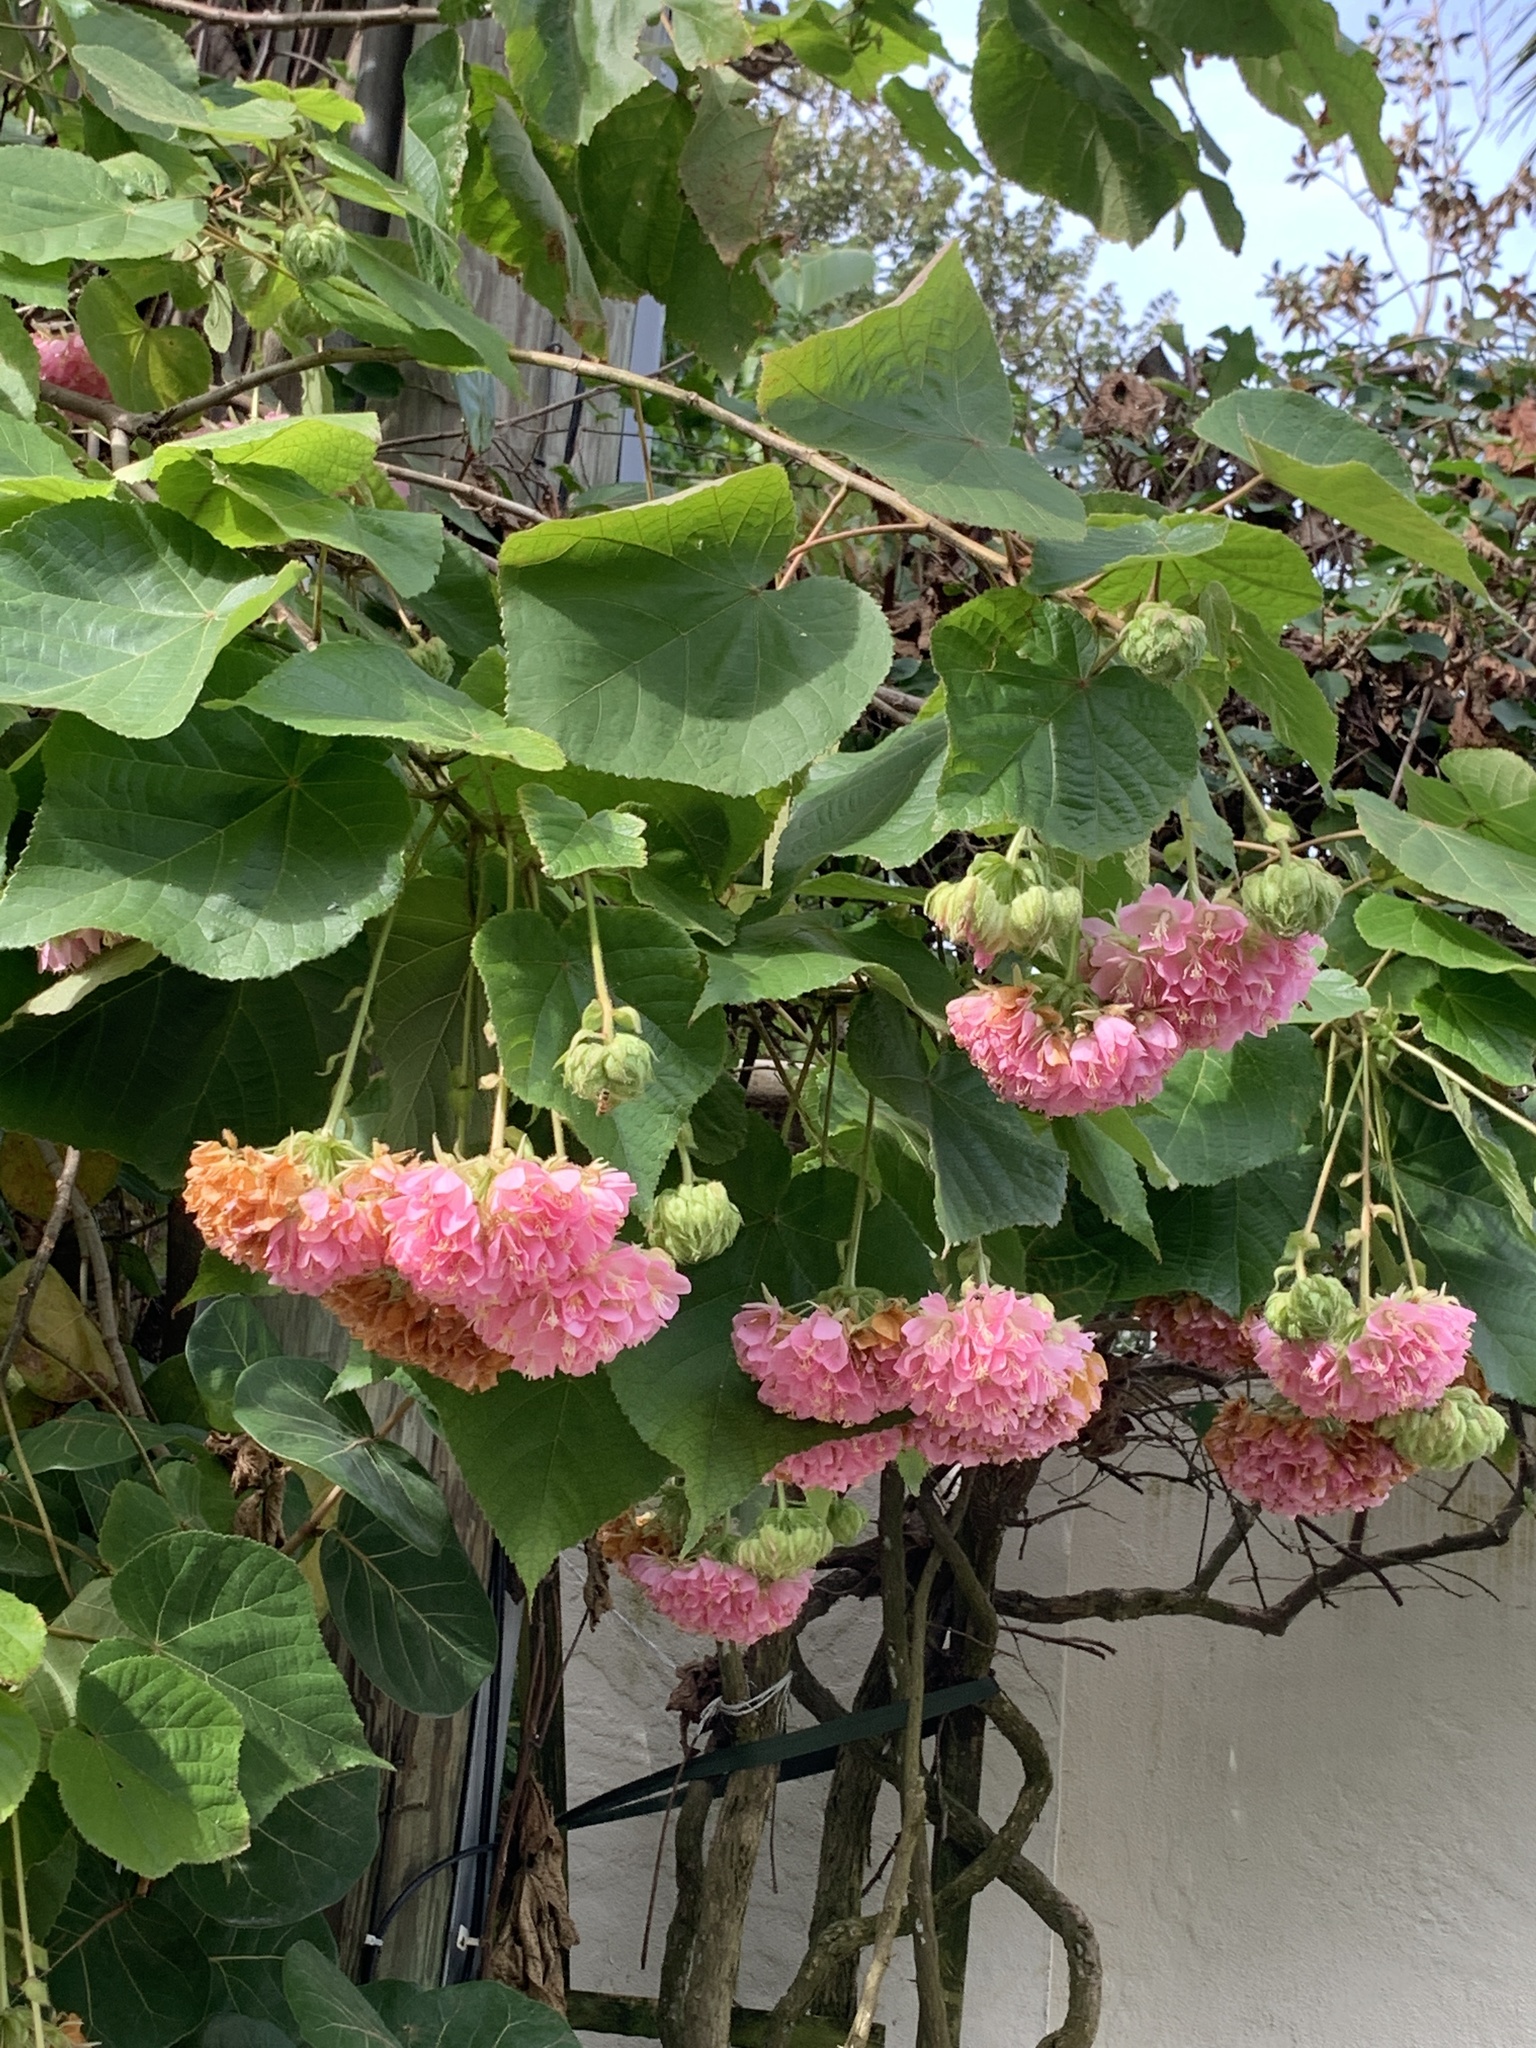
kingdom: Plantae
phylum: Tracheophyta
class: Magnoliopsida
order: Malvales
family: Malvaceae
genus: Dombeya
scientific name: Dombeya wallichii
